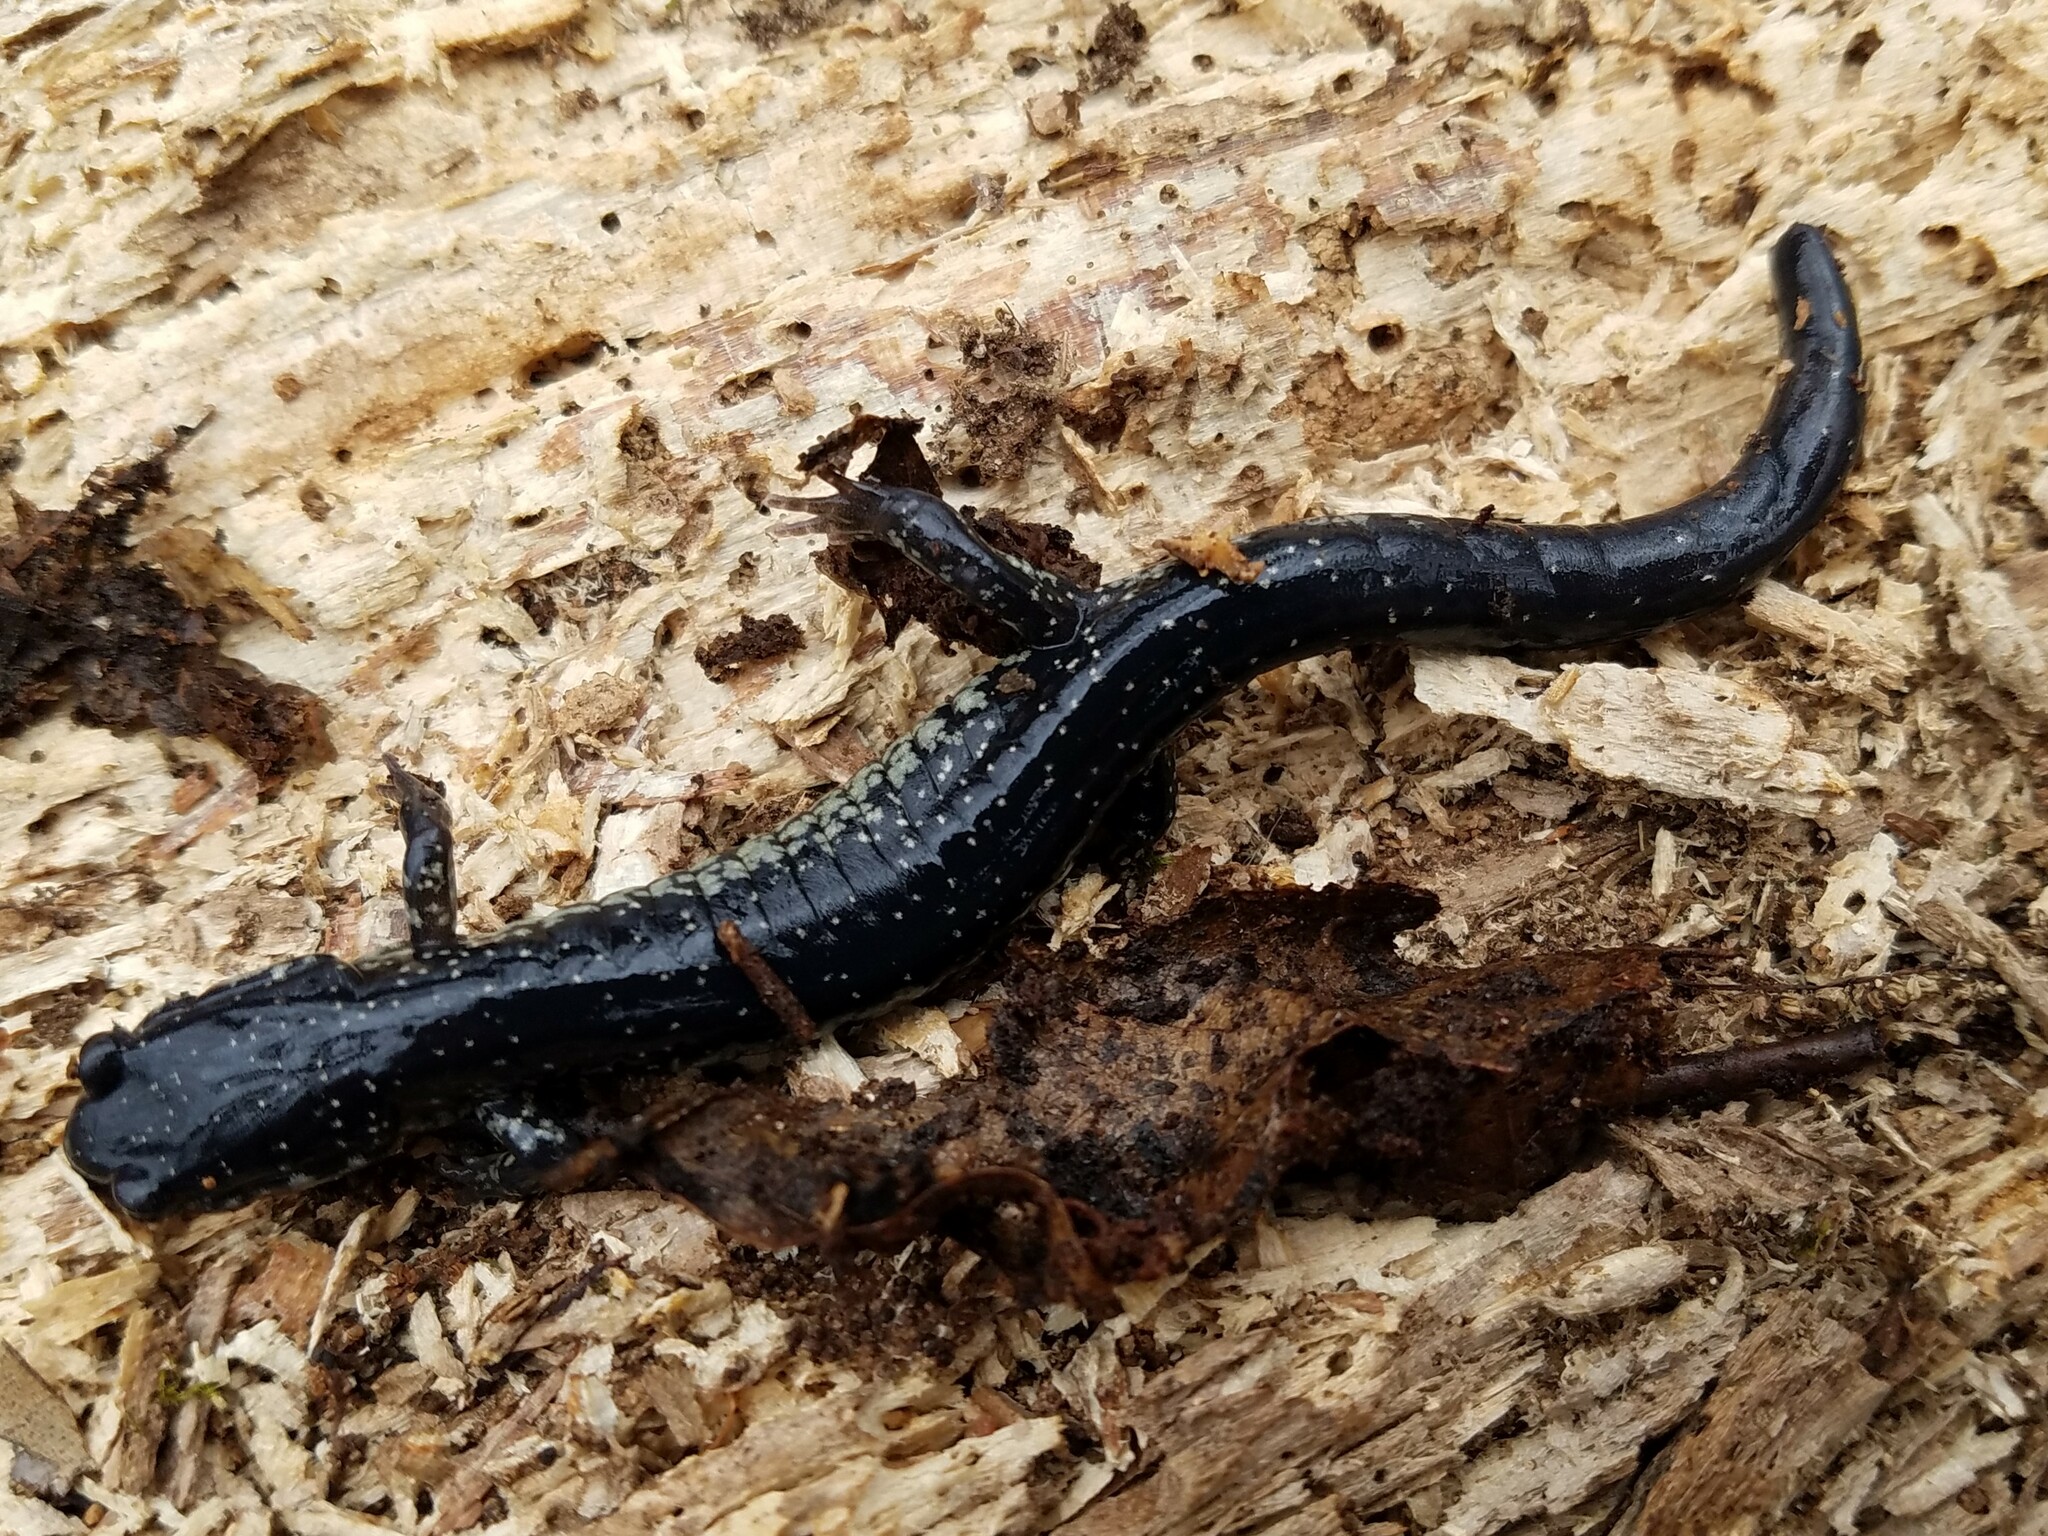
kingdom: Animalia
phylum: Chordata
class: Amphibia
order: Caudata
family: Plethodontidae
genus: Plethodon
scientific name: Plethodon glutinosus
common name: Northern slimy salamander
